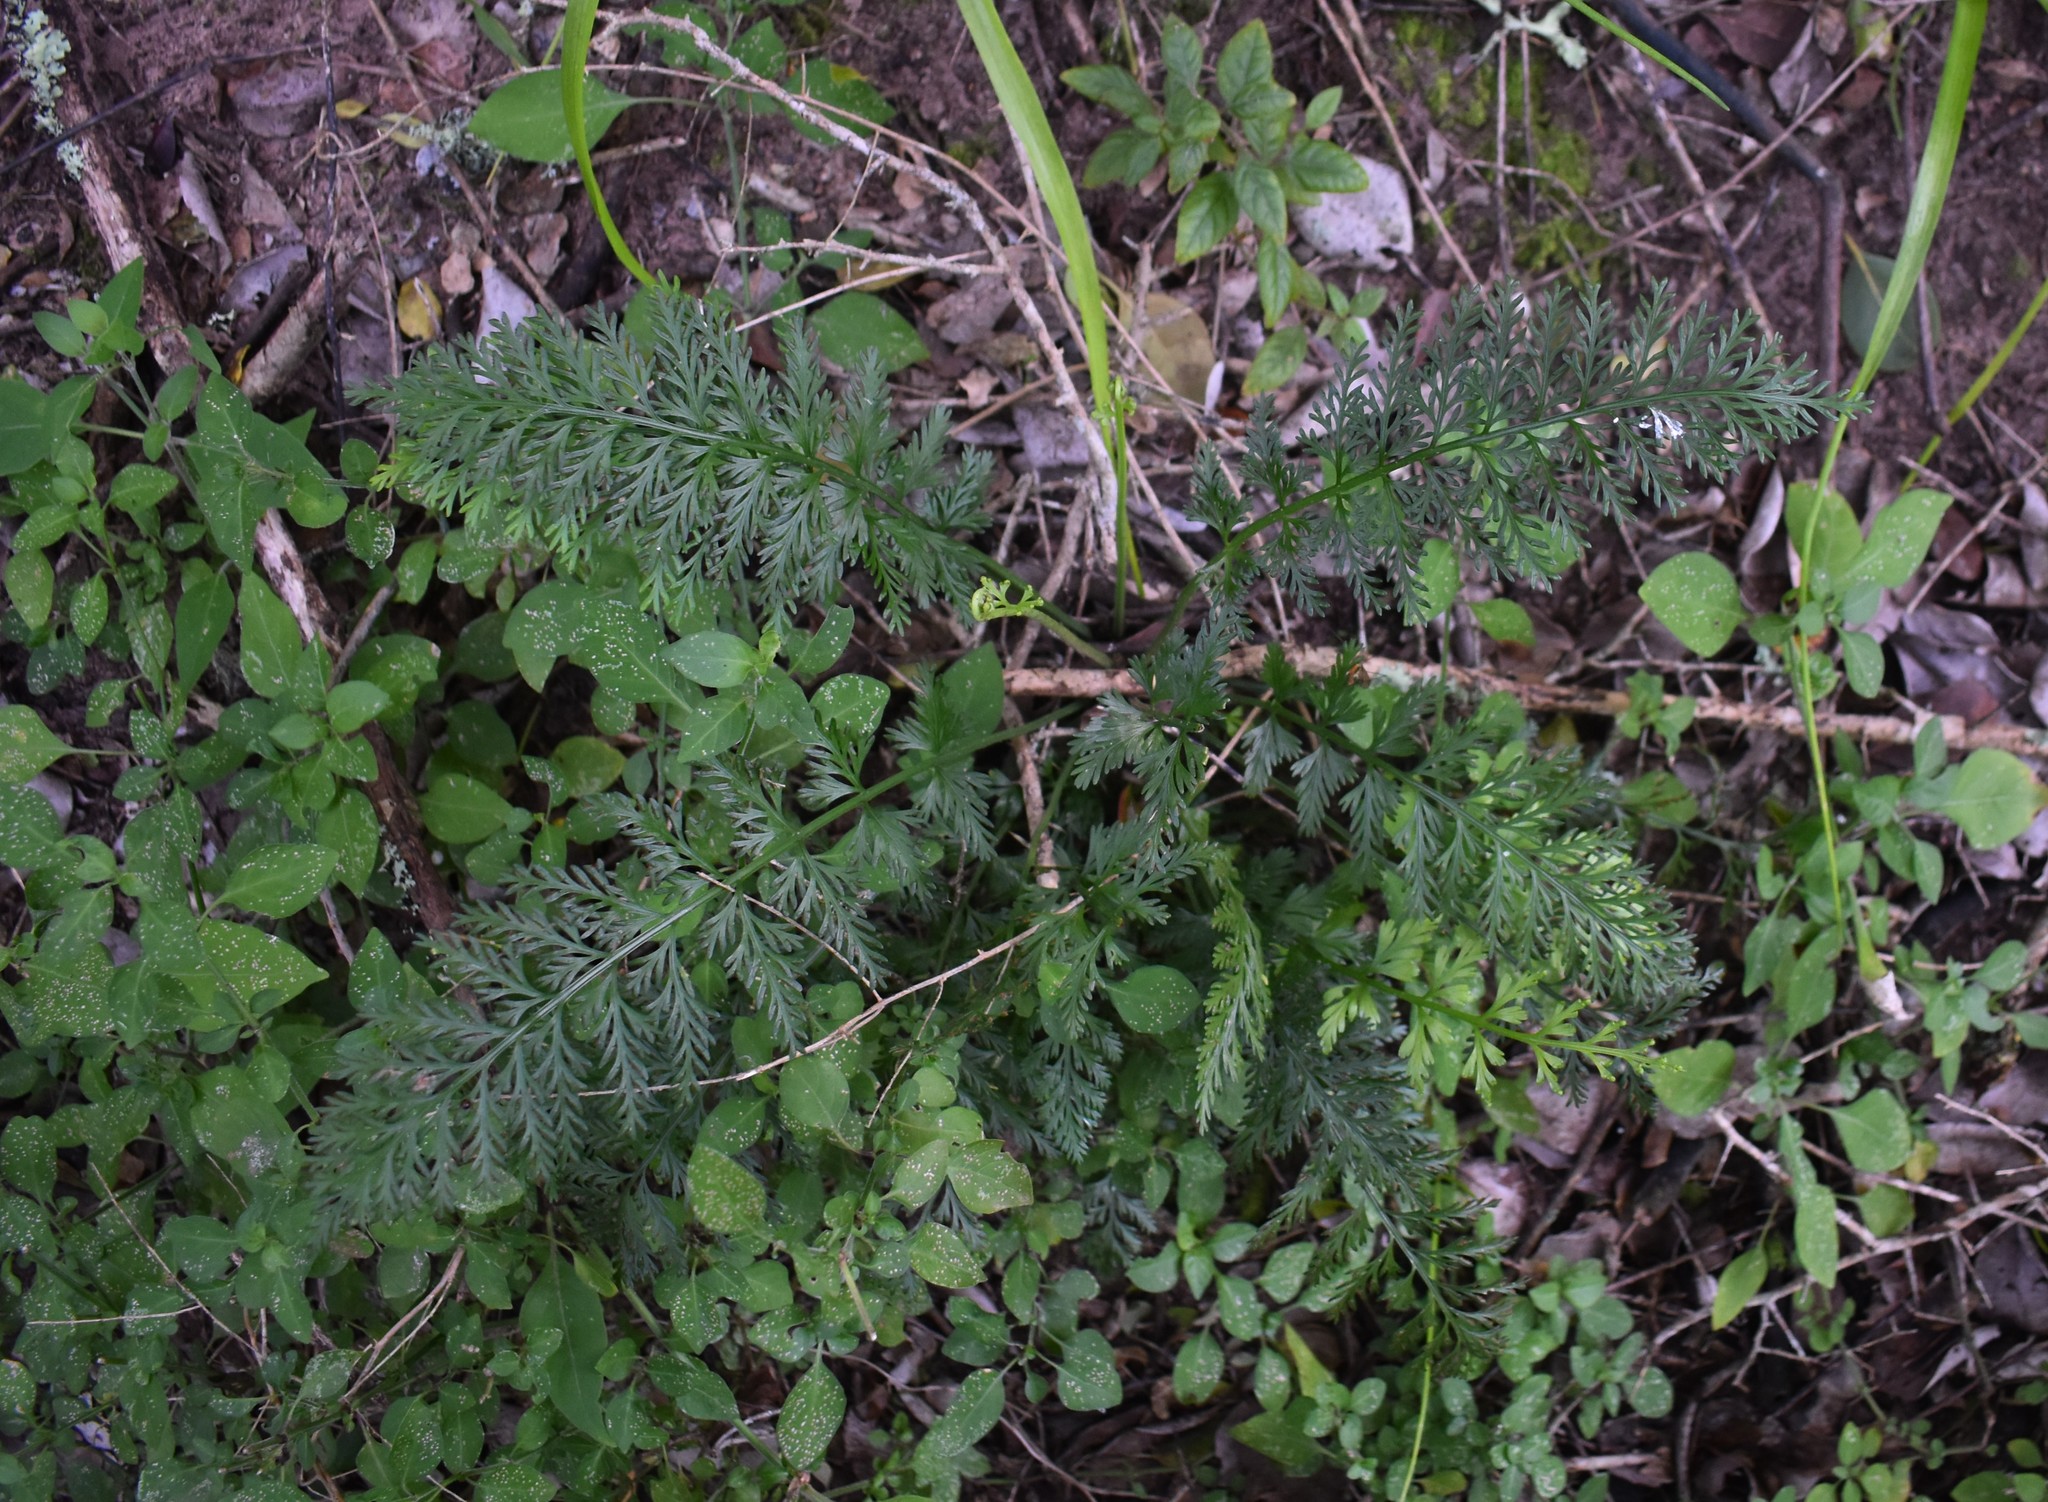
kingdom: Plantae
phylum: Tracheophyta
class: Polypodiopsida
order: Polypodiales
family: Aspleniaceae
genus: Asplenium
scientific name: Asplenium rutifolium
